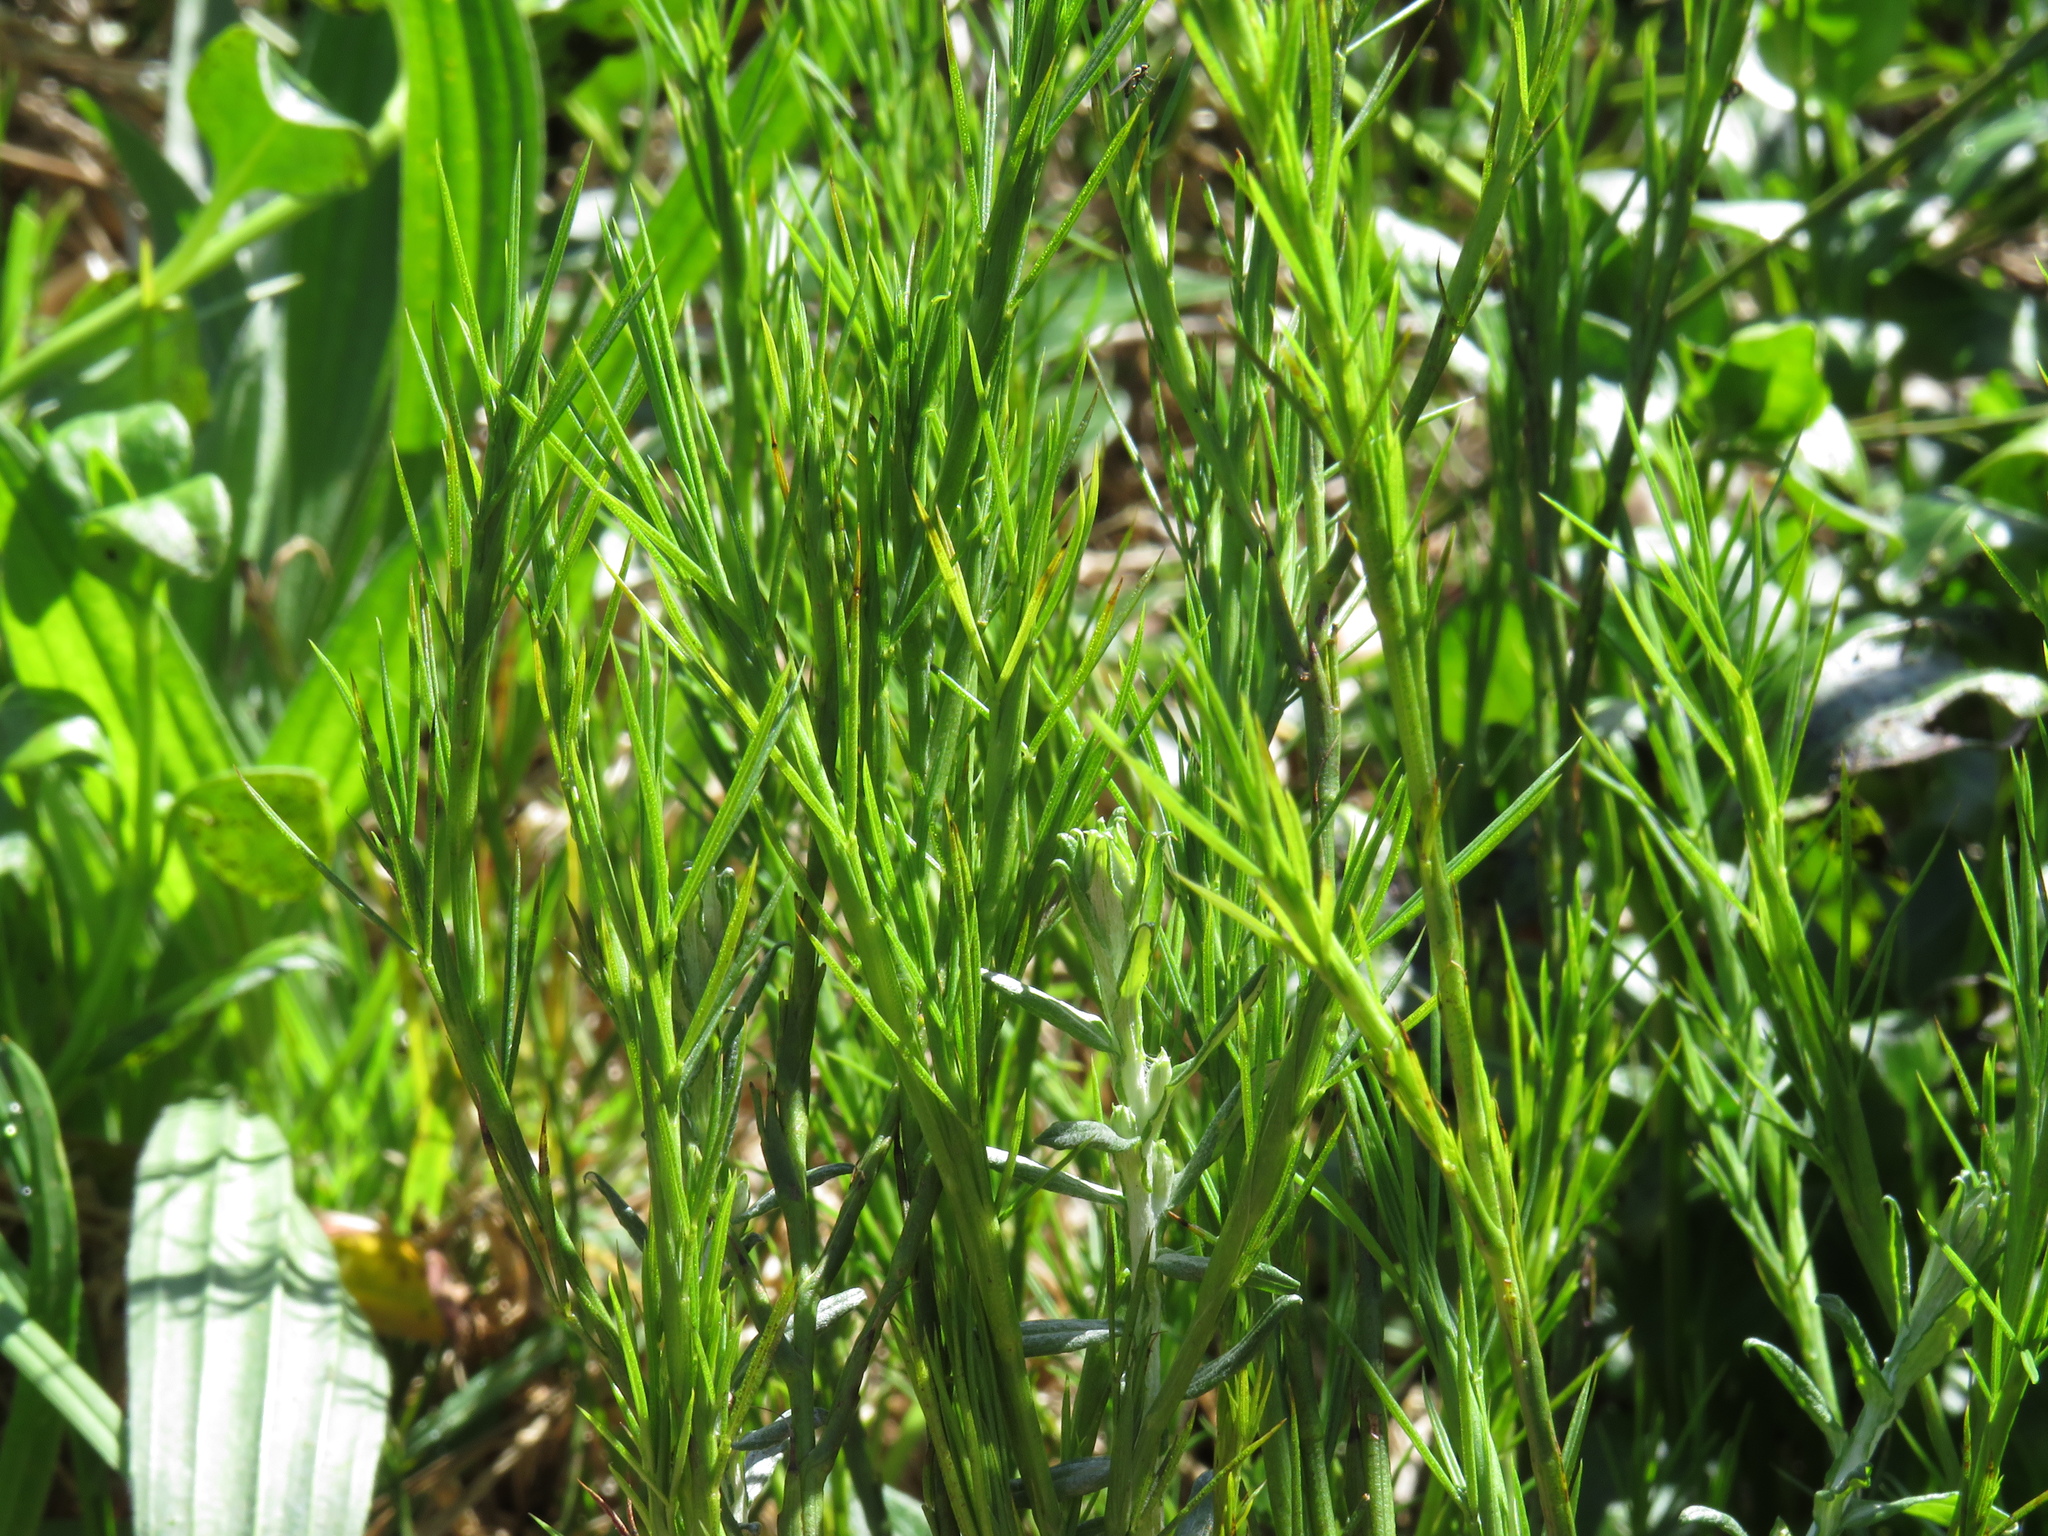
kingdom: Plantae
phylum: Tracheophyta
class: Magnoliopsida
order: Fabales
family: Fabaceae
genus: Psoralea
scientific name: Psoralea fascicularis
